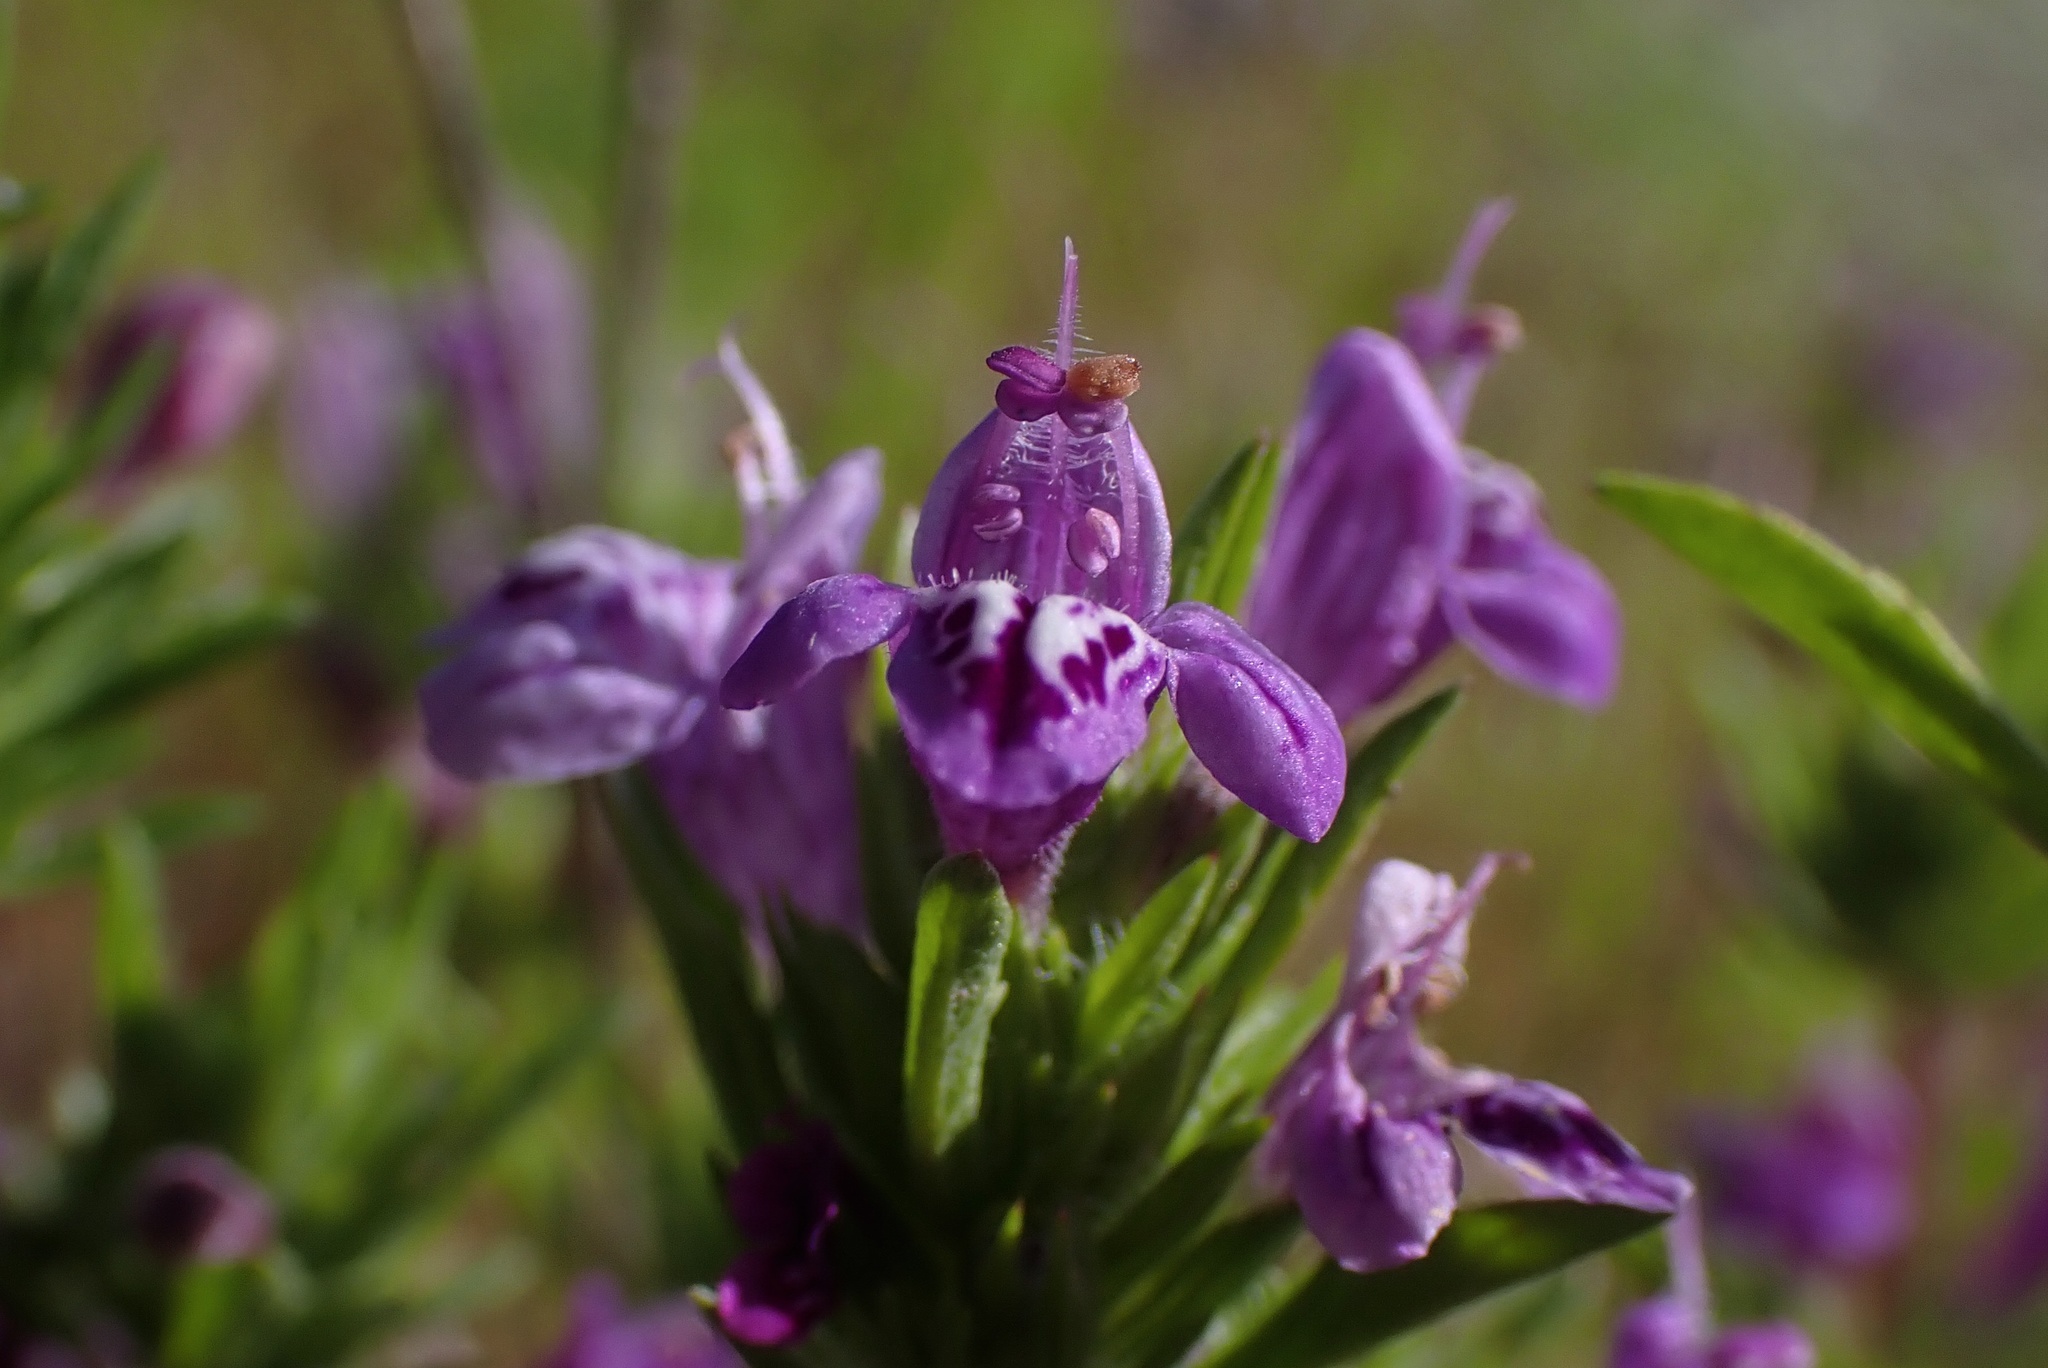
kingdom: Plantae
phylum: Tracheophyta
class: Magnoliopsida
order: Lamiales
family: Lamiaceae
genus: Pogogyne
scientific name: Pogogyne nudiuscula
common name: Otay mesa-mint
